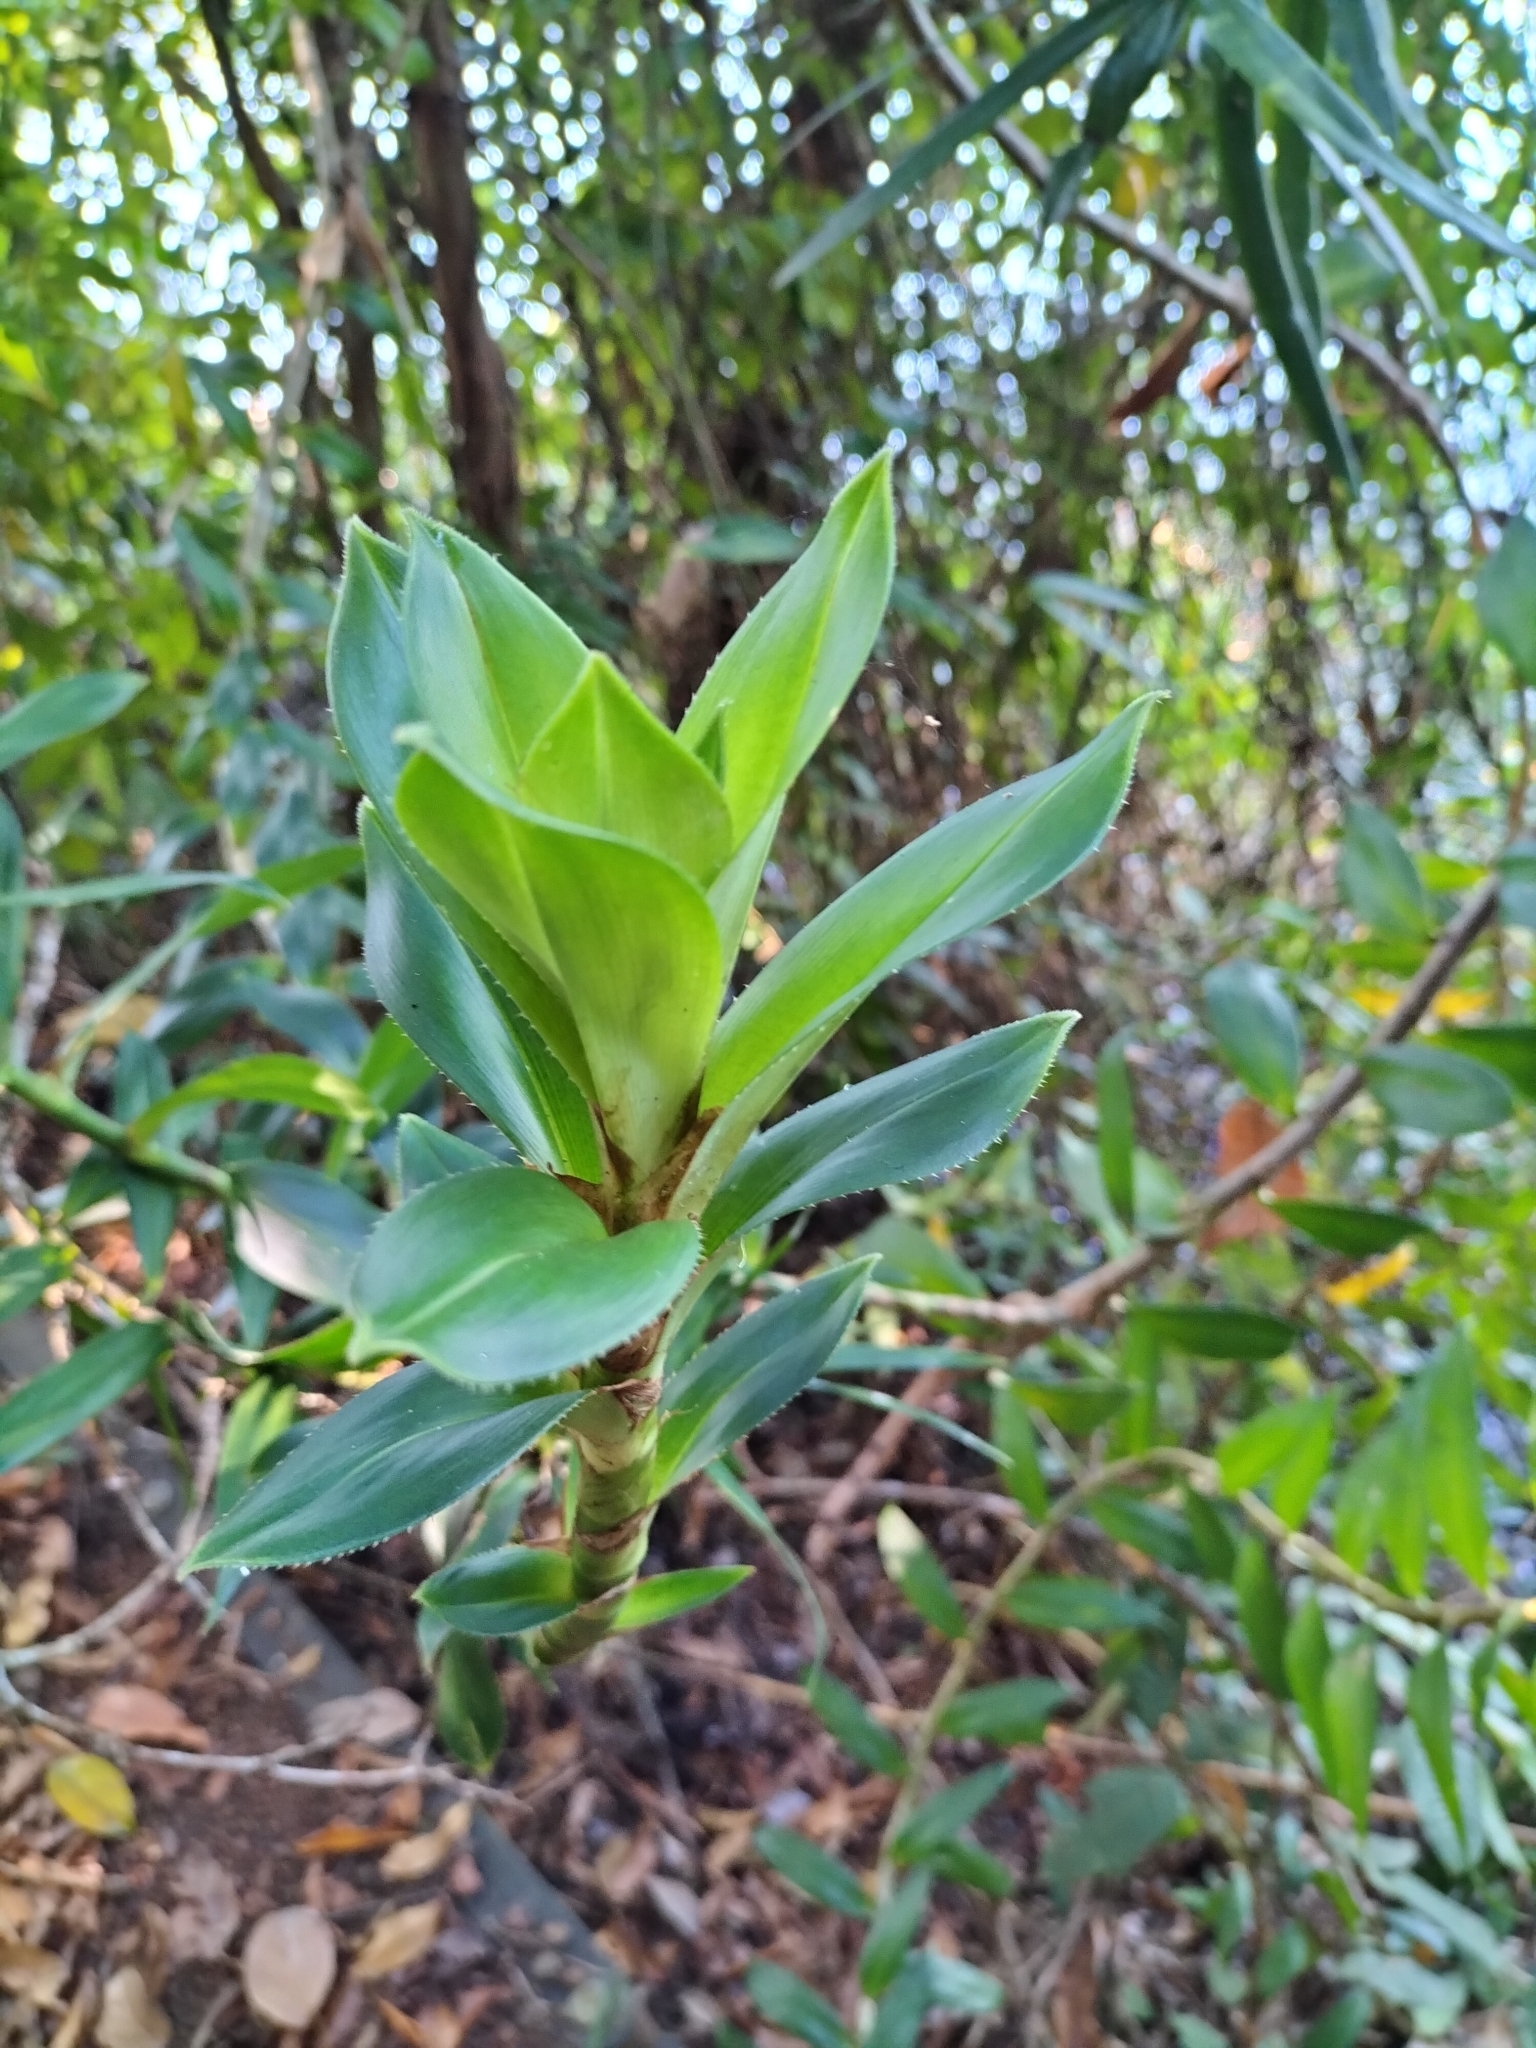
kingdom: Plantae
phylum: Tracheophyta
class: Liliopsida
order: Pandanales
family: Pandanaceae
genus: Freycinetia
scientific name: Freycinetia scandens
